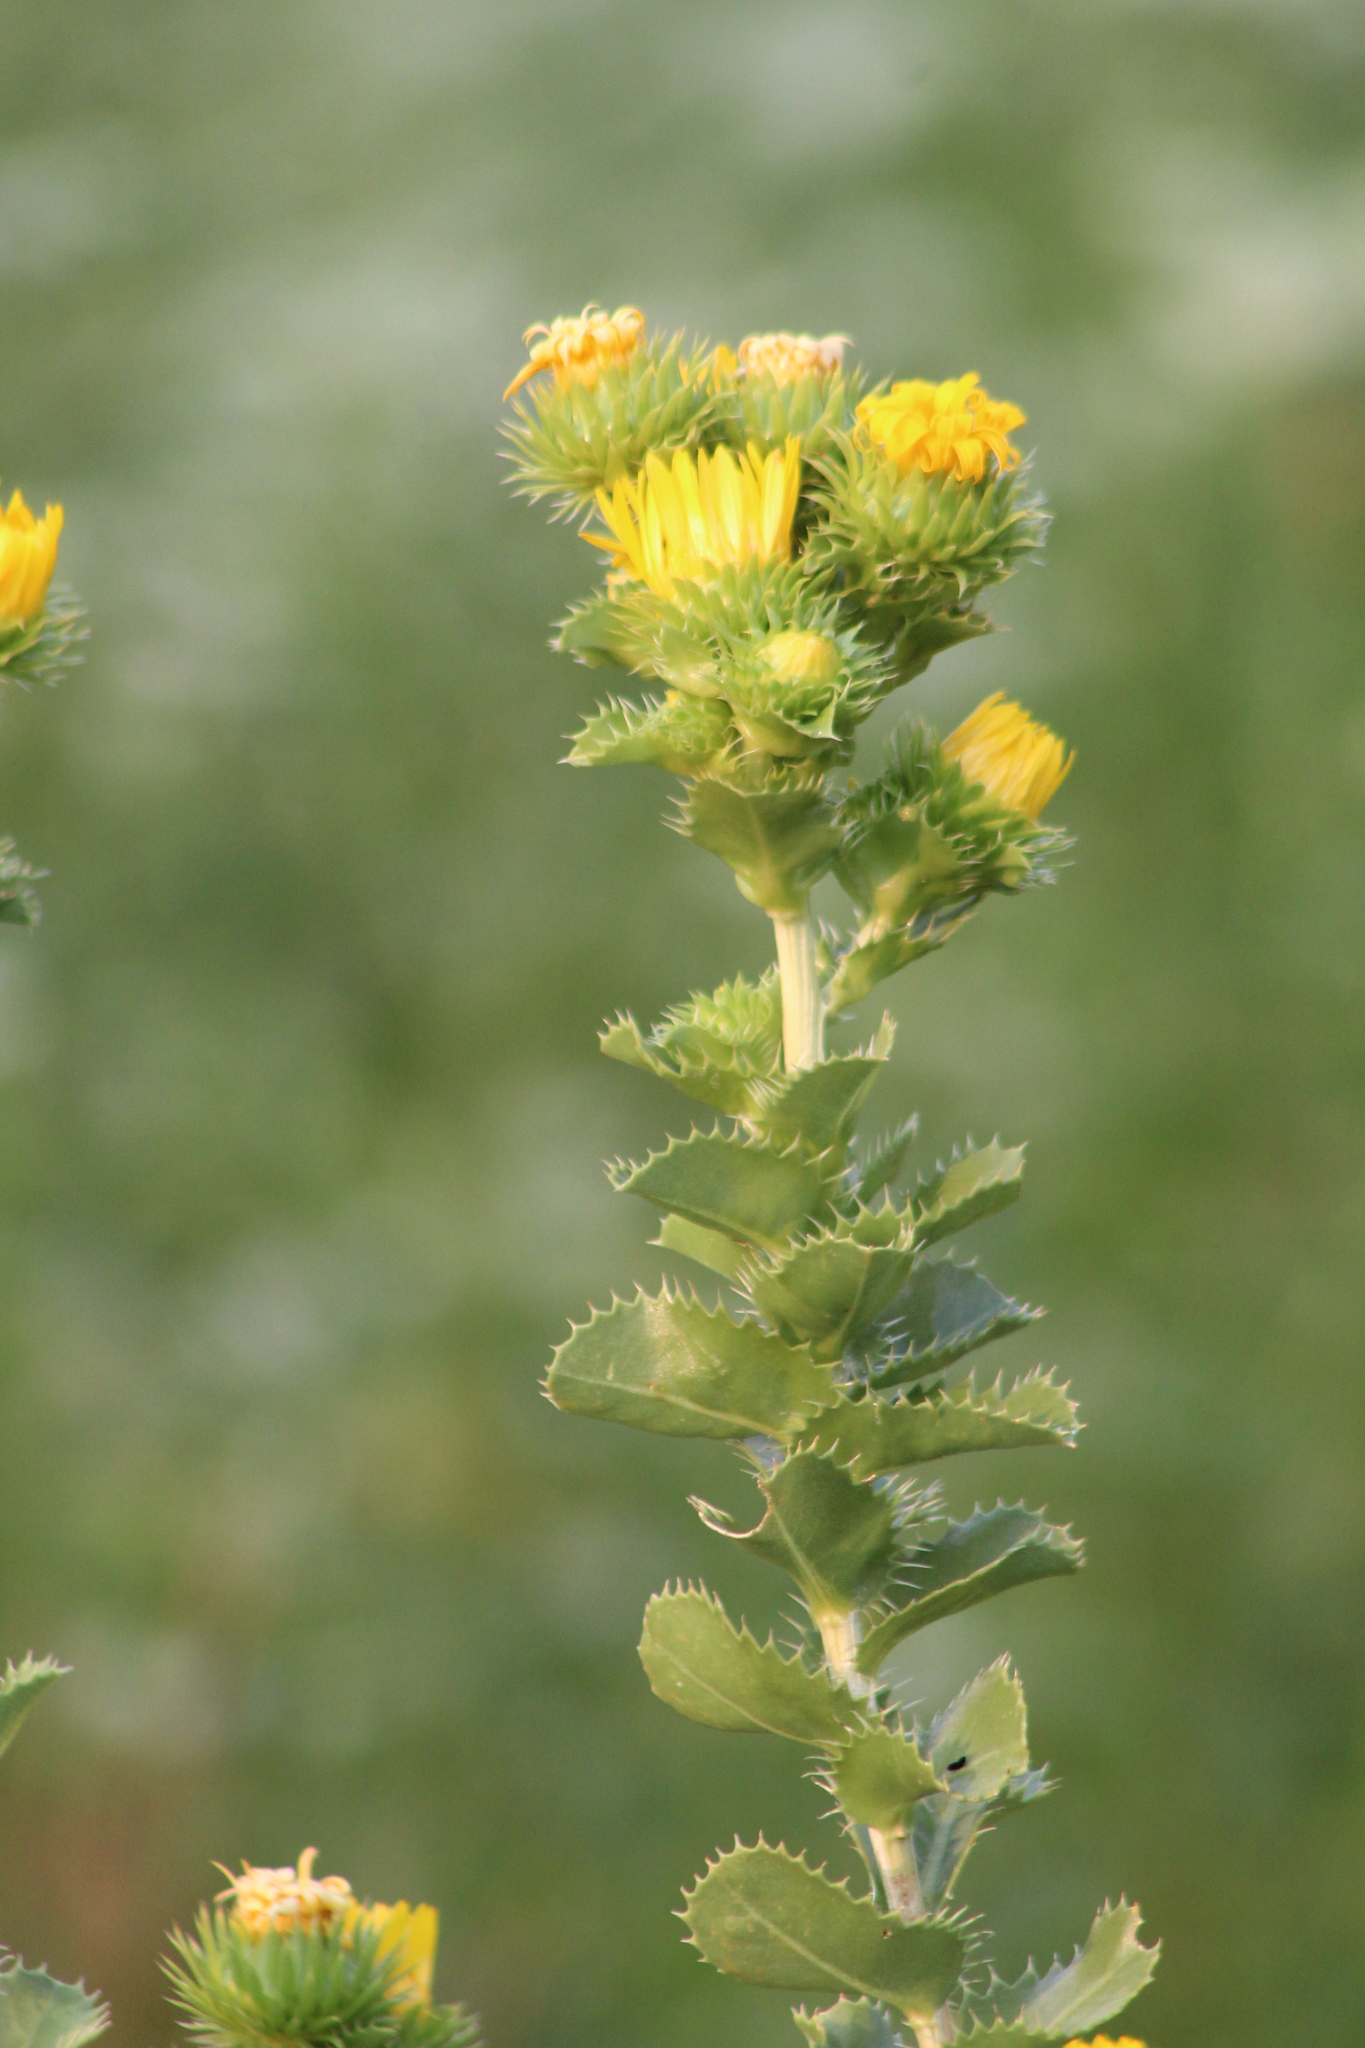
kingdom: Plantae
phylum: Tracheophyta
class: Magnoliopsida
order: Asterales
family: Asteraceae
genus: Grindelia
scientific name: Grindelia ciliata
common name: Goldenweed
